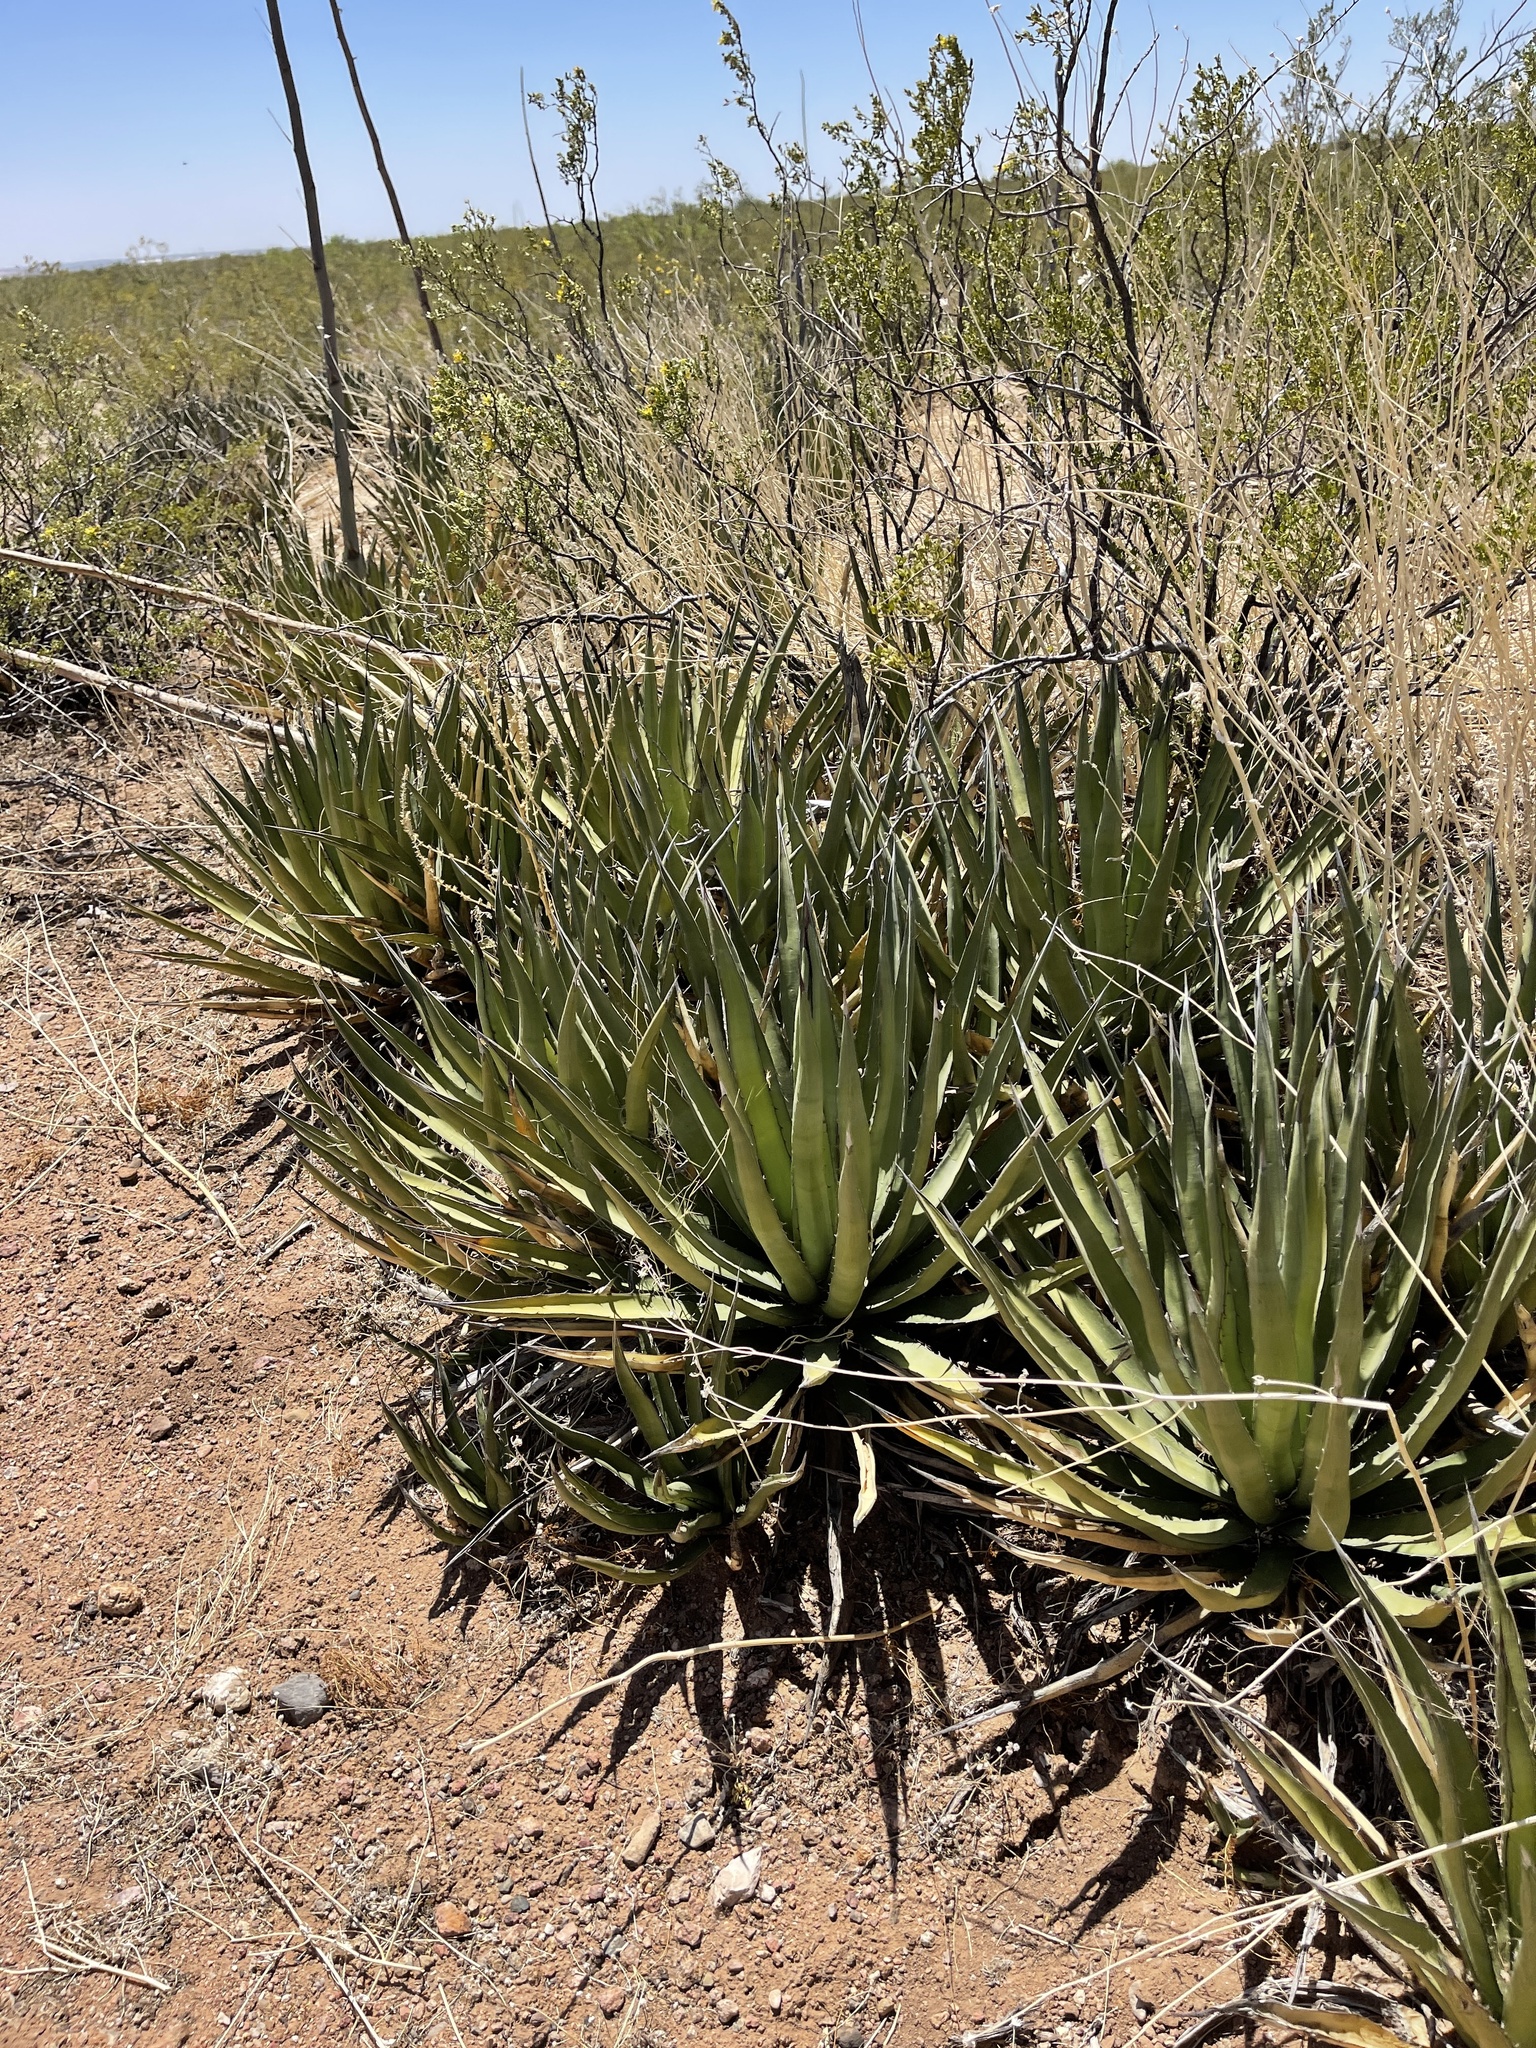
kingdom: Plantae
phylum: Tracheophyta
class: Liliopsida
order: Asparagales
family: Asparagaceae
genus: Agave
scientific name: Agave lechuguilla
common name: Lecheguilla agave
